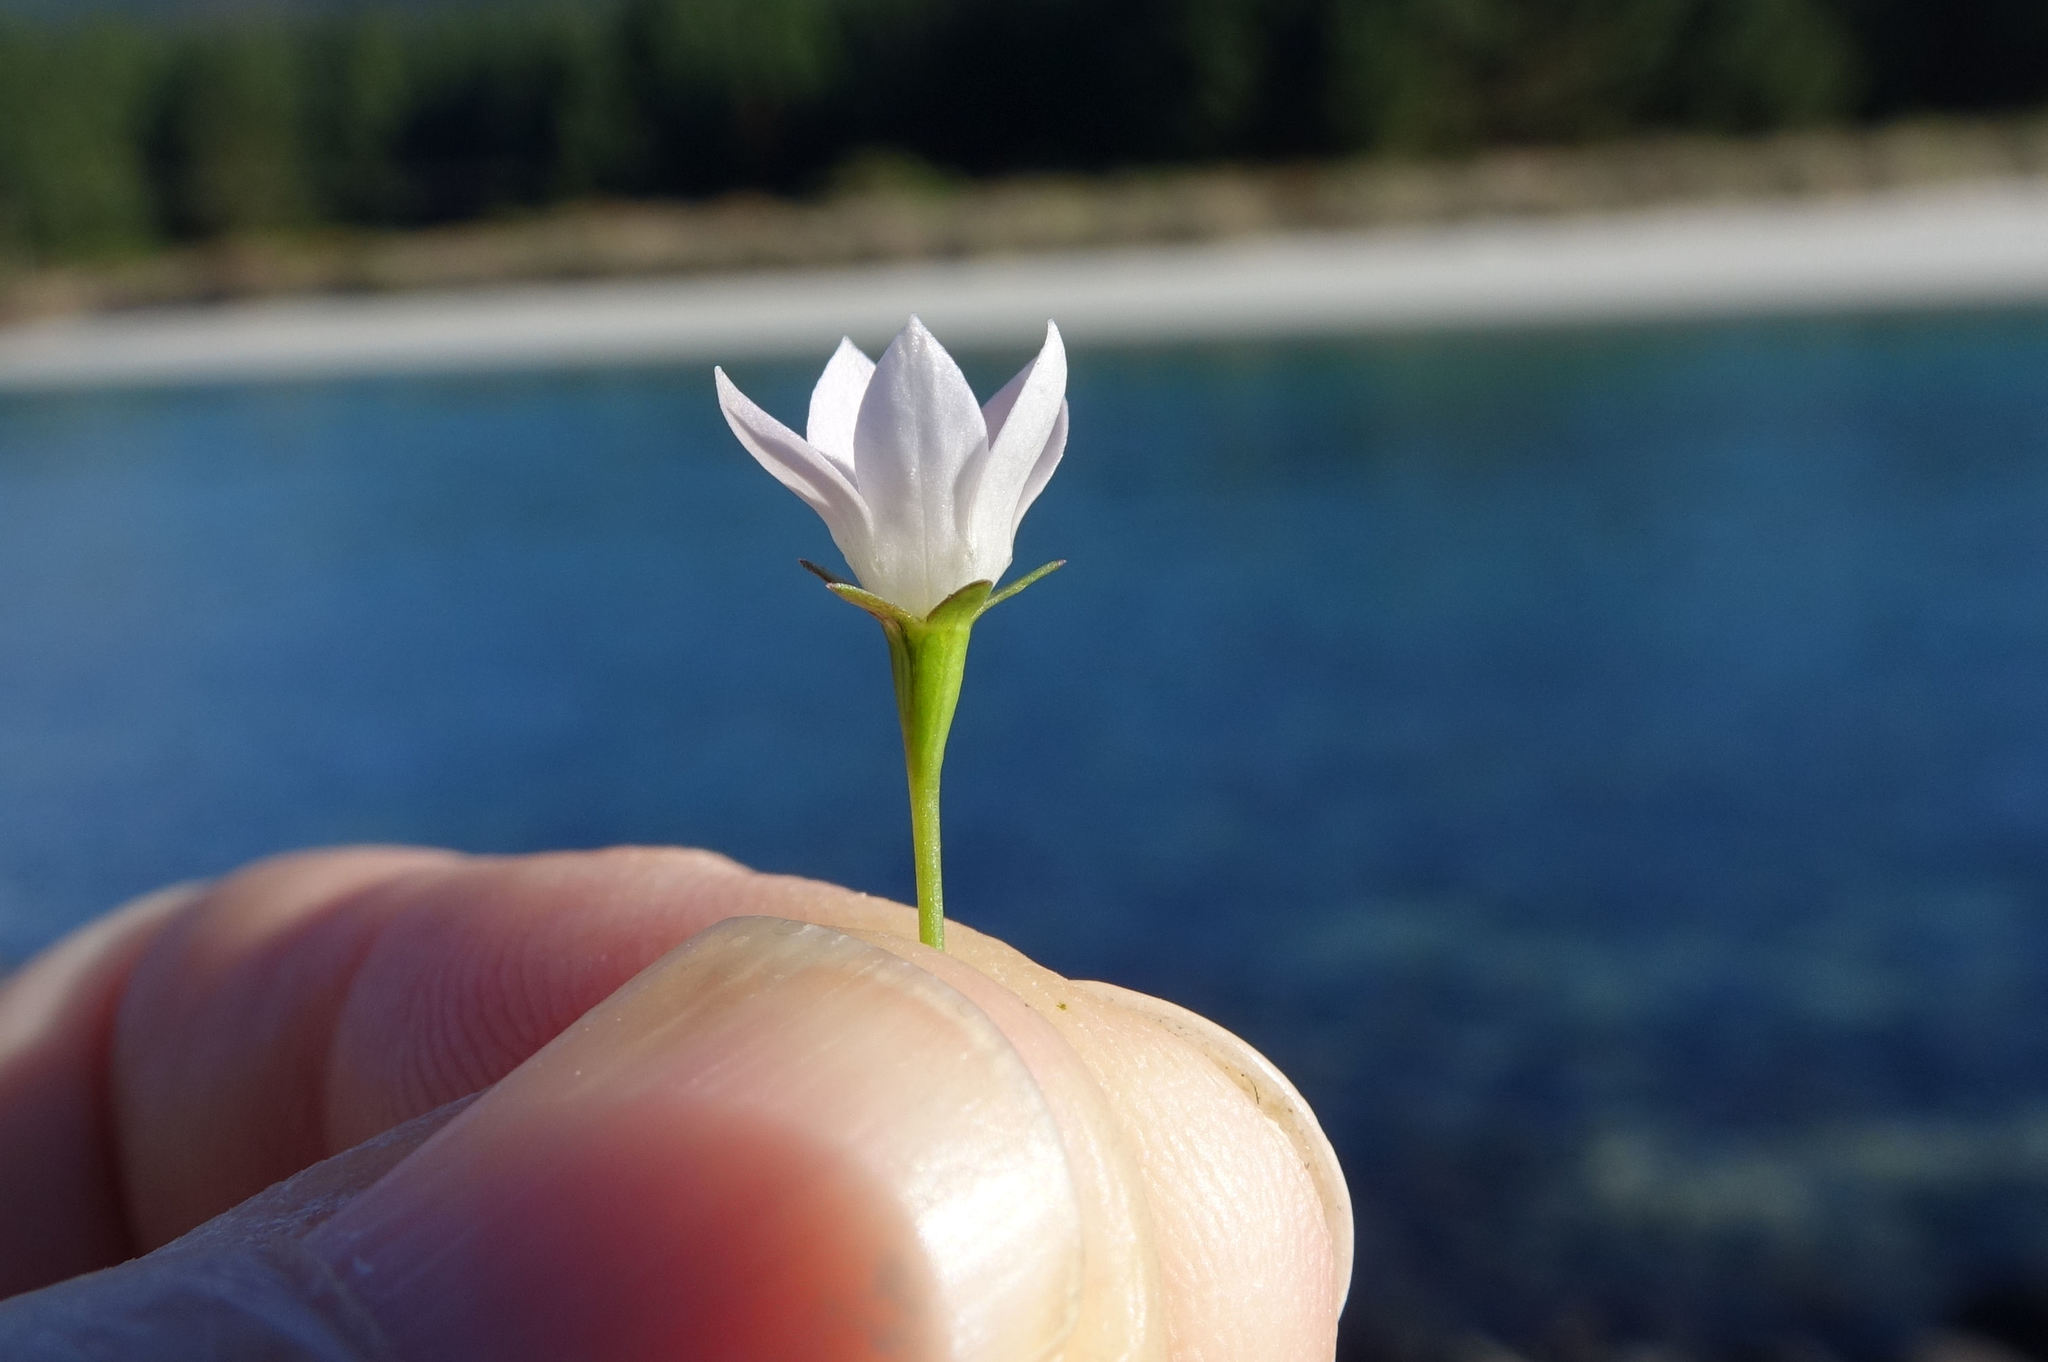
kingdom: Plantae
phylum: Tracheophyta
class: Magnoliopsida
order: Asterales
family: Campanulaceae
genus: Wahlenbergia
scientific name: Wahlenbergia rupestris
